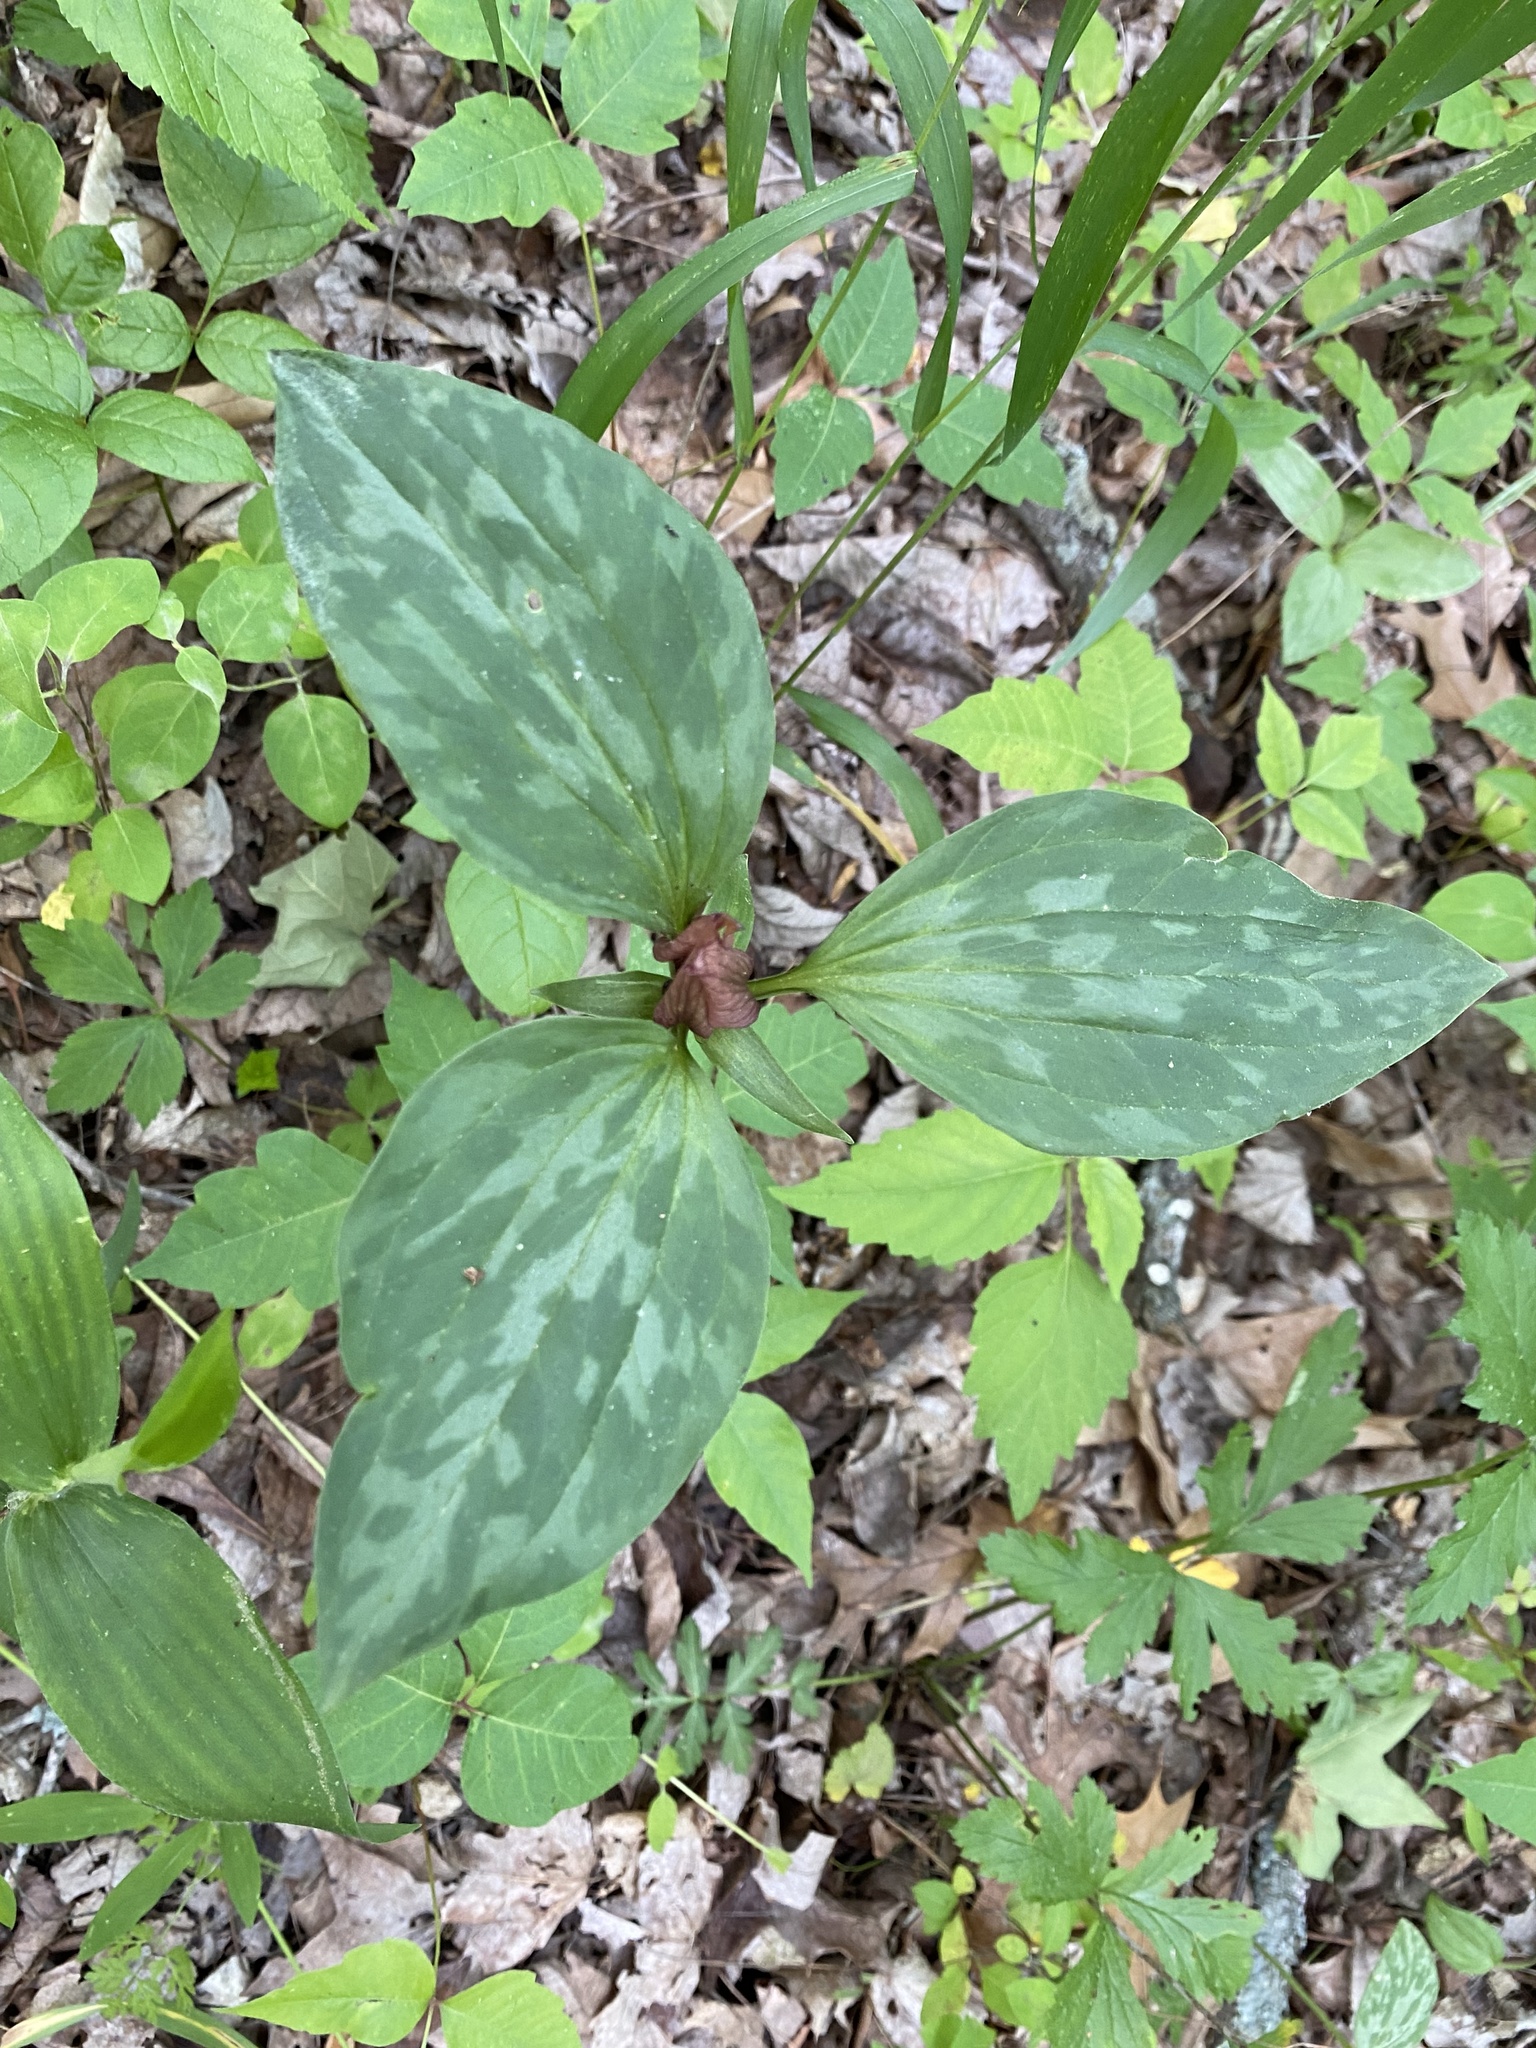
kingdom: Plantae
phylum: Tracheophyta
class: Liliopsida
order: Liliales
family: Melanthiaceae
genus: Trillium
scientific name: Trillium recurvatum
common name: Bloody butcher
